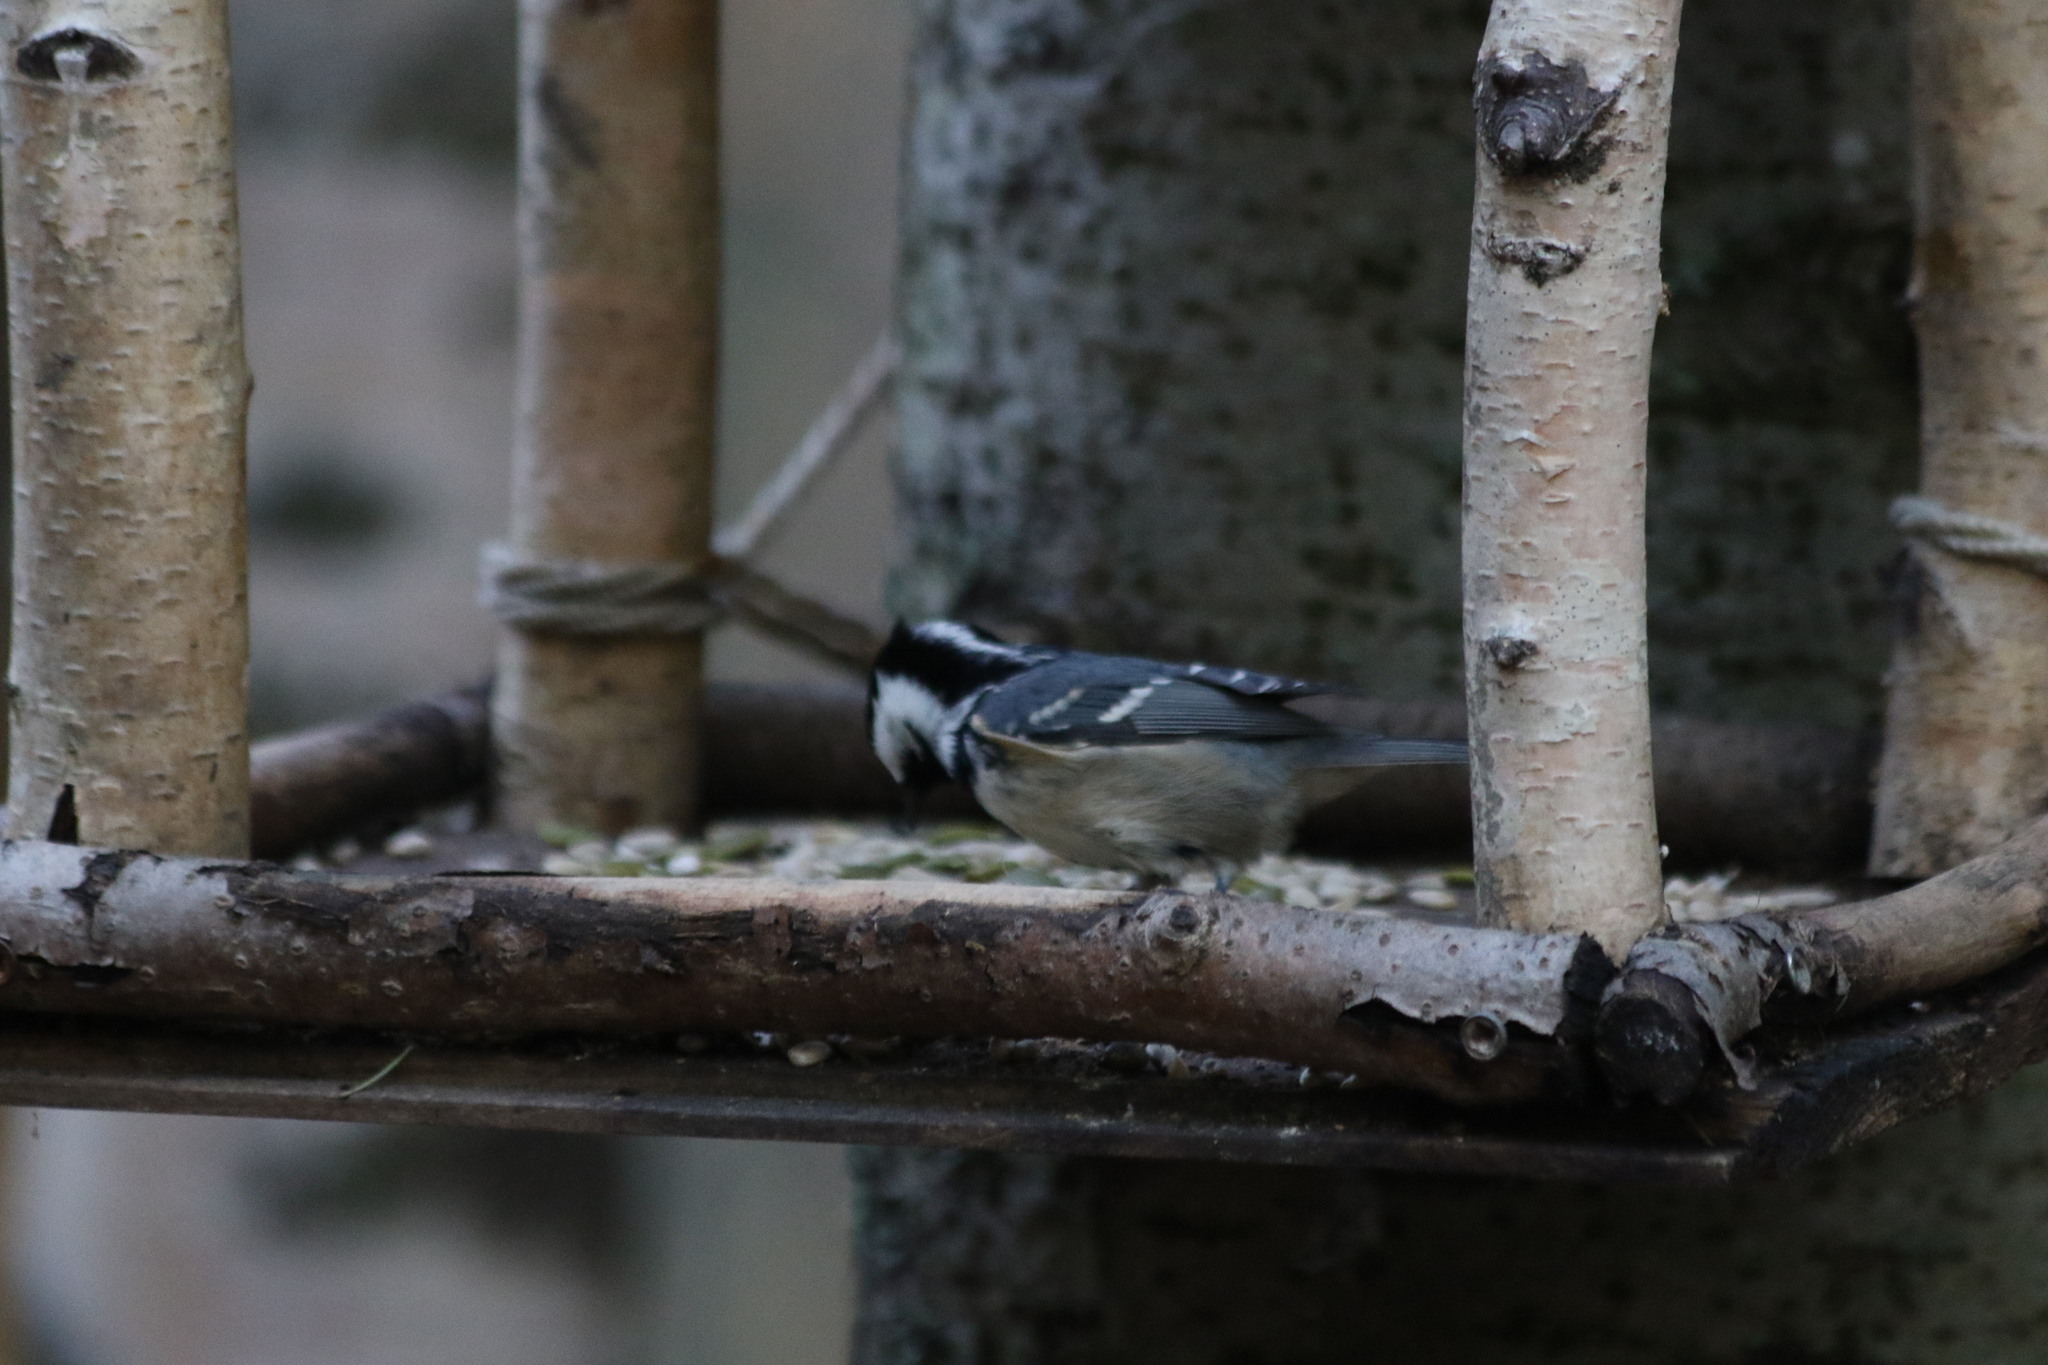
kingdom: Animalia
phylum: Chordata
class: Aves
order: Passeriformes
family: Paridae
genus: Periparus
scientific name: Periparus ater
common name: Coal tit
